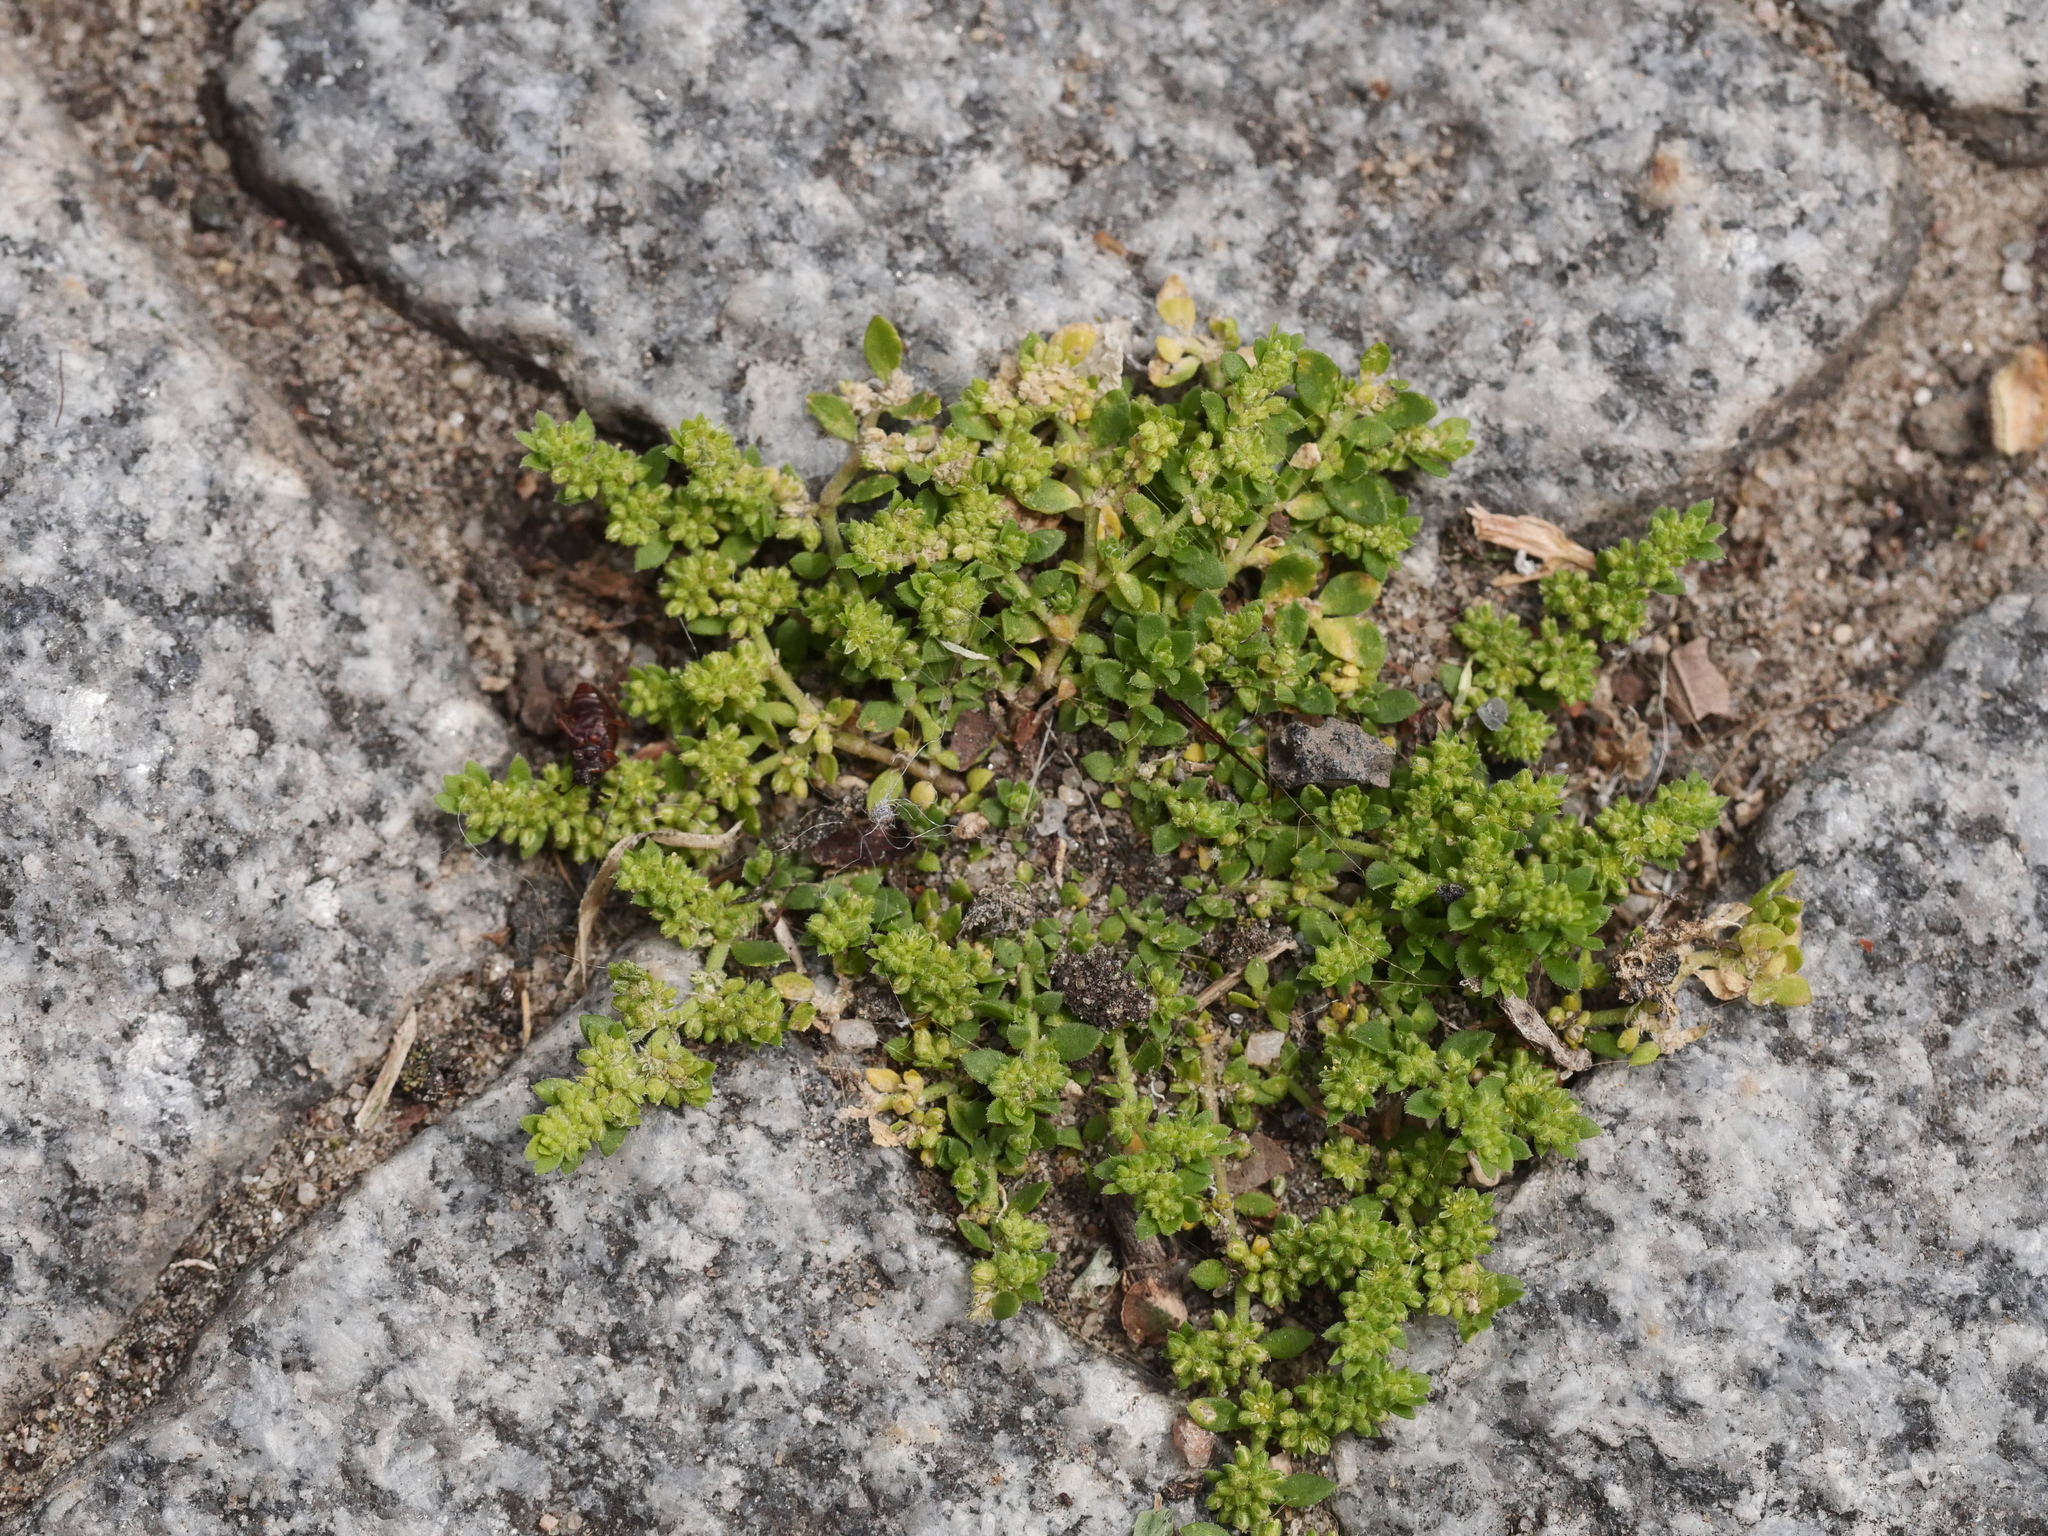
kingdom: Plantae
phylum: Tracheophyta
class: Magnoliopsida
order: Caryophyllales
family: Caryophyllaceae
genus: Herniaria
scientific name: Herniaria glabra
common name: Smooth rupturewort
